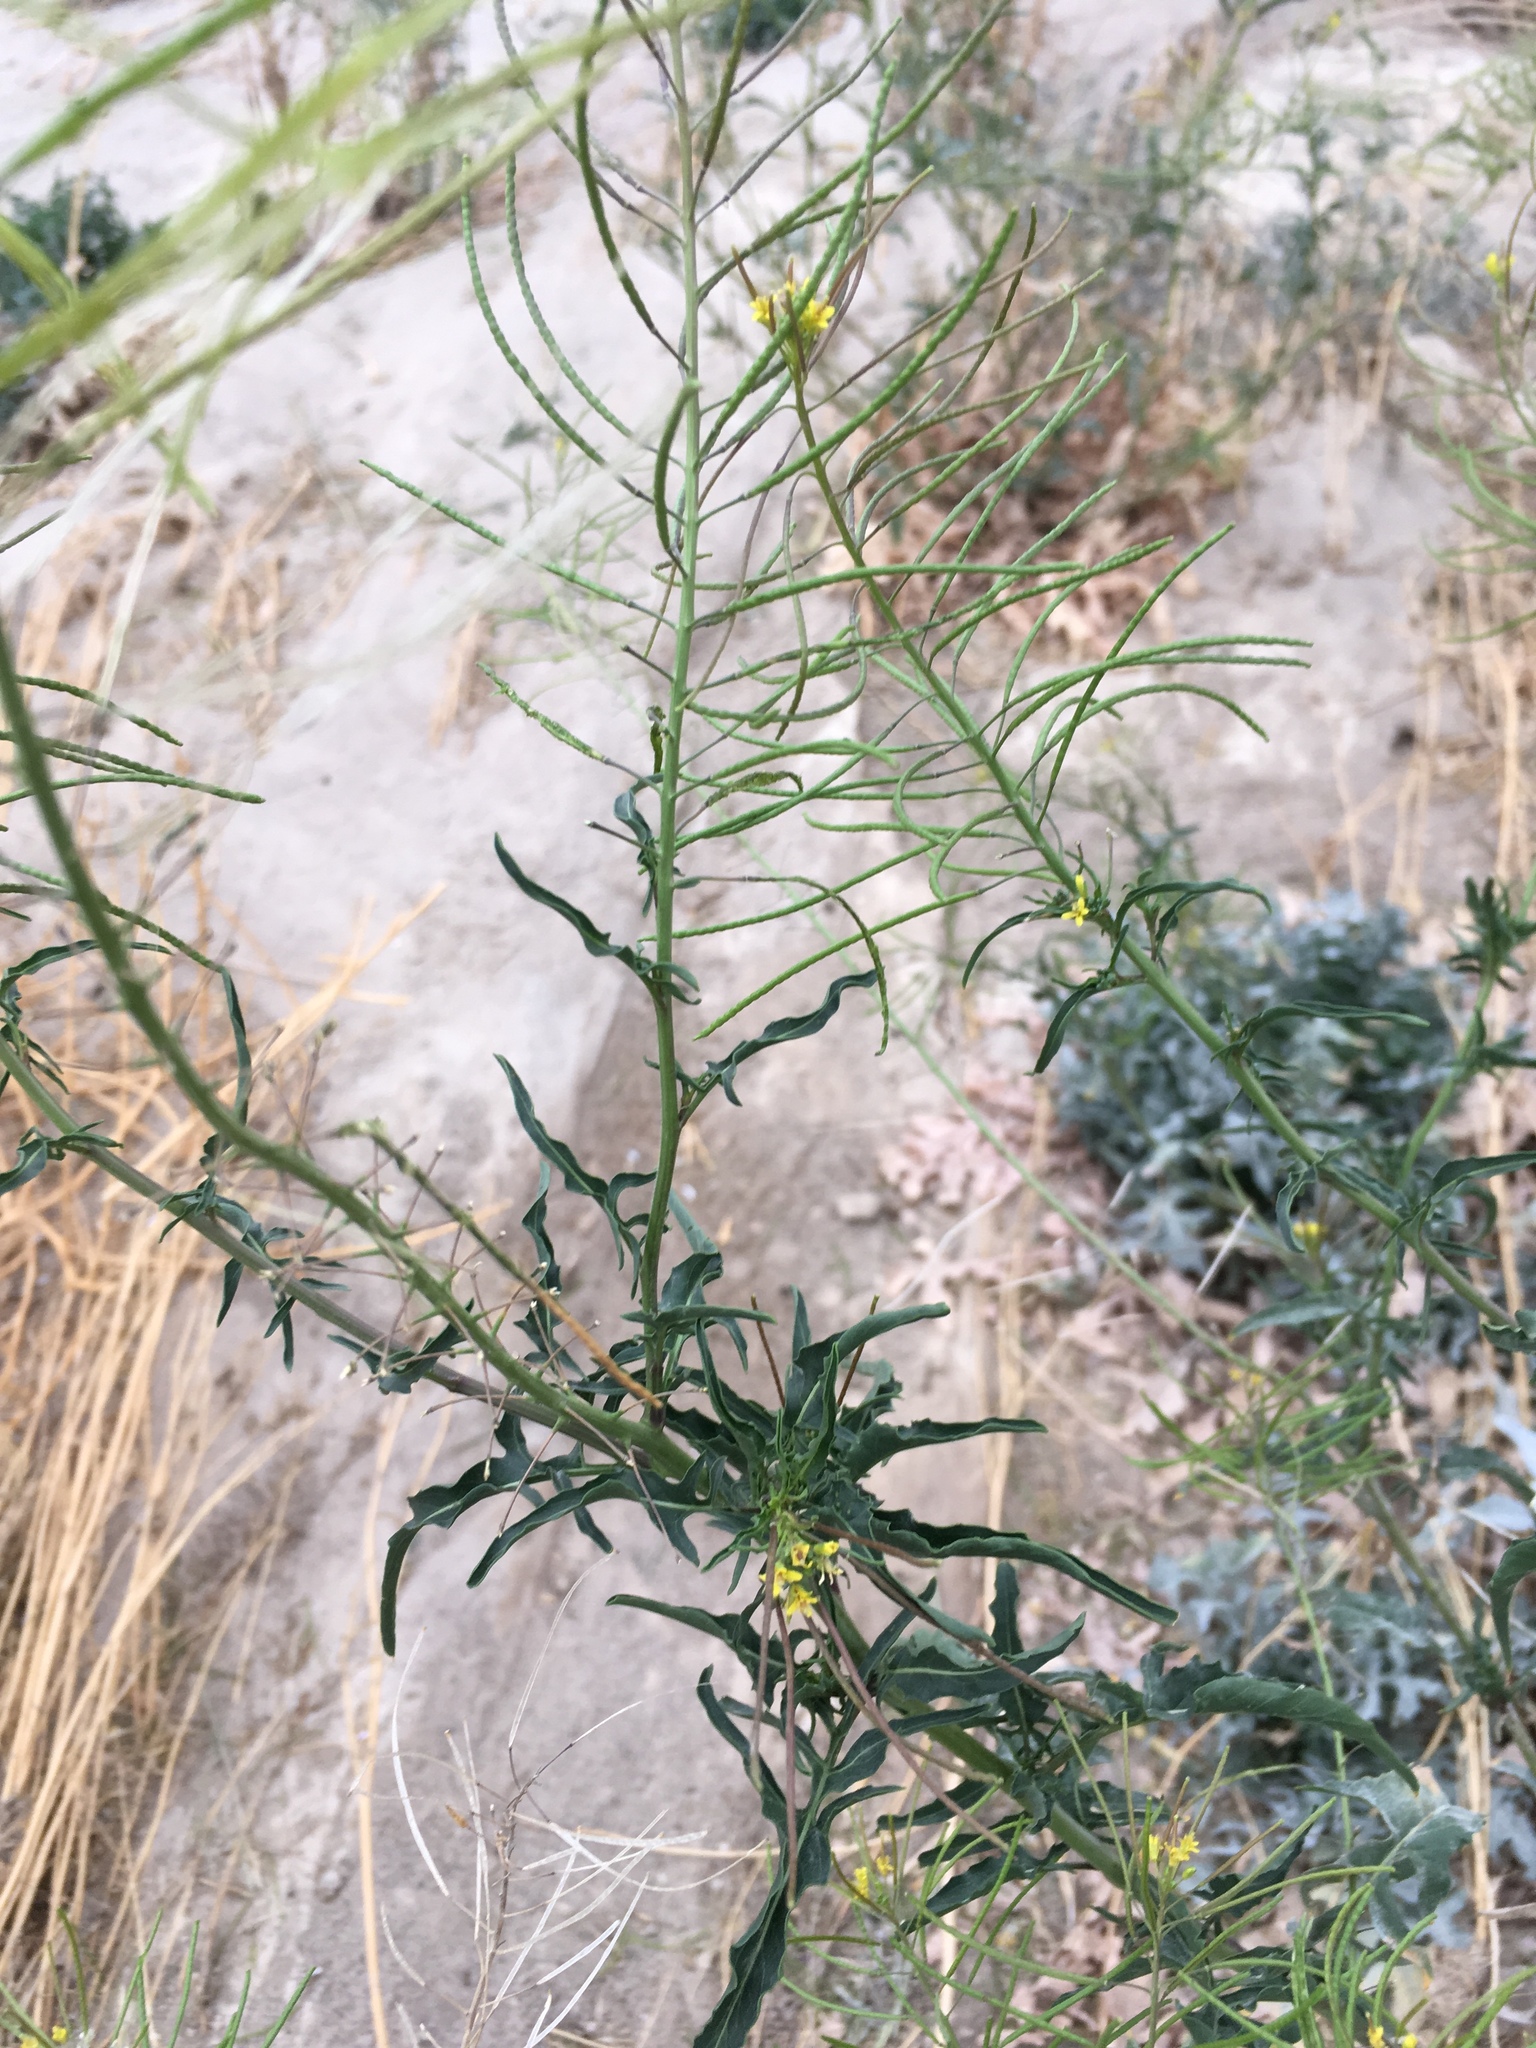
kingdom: Plantae
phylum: Tracheophyta
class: Magnoliopsida
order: Brassicales
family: Brassicaceae
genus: Sisymbrium
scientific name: Sisymbrium irio
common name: London rocket
